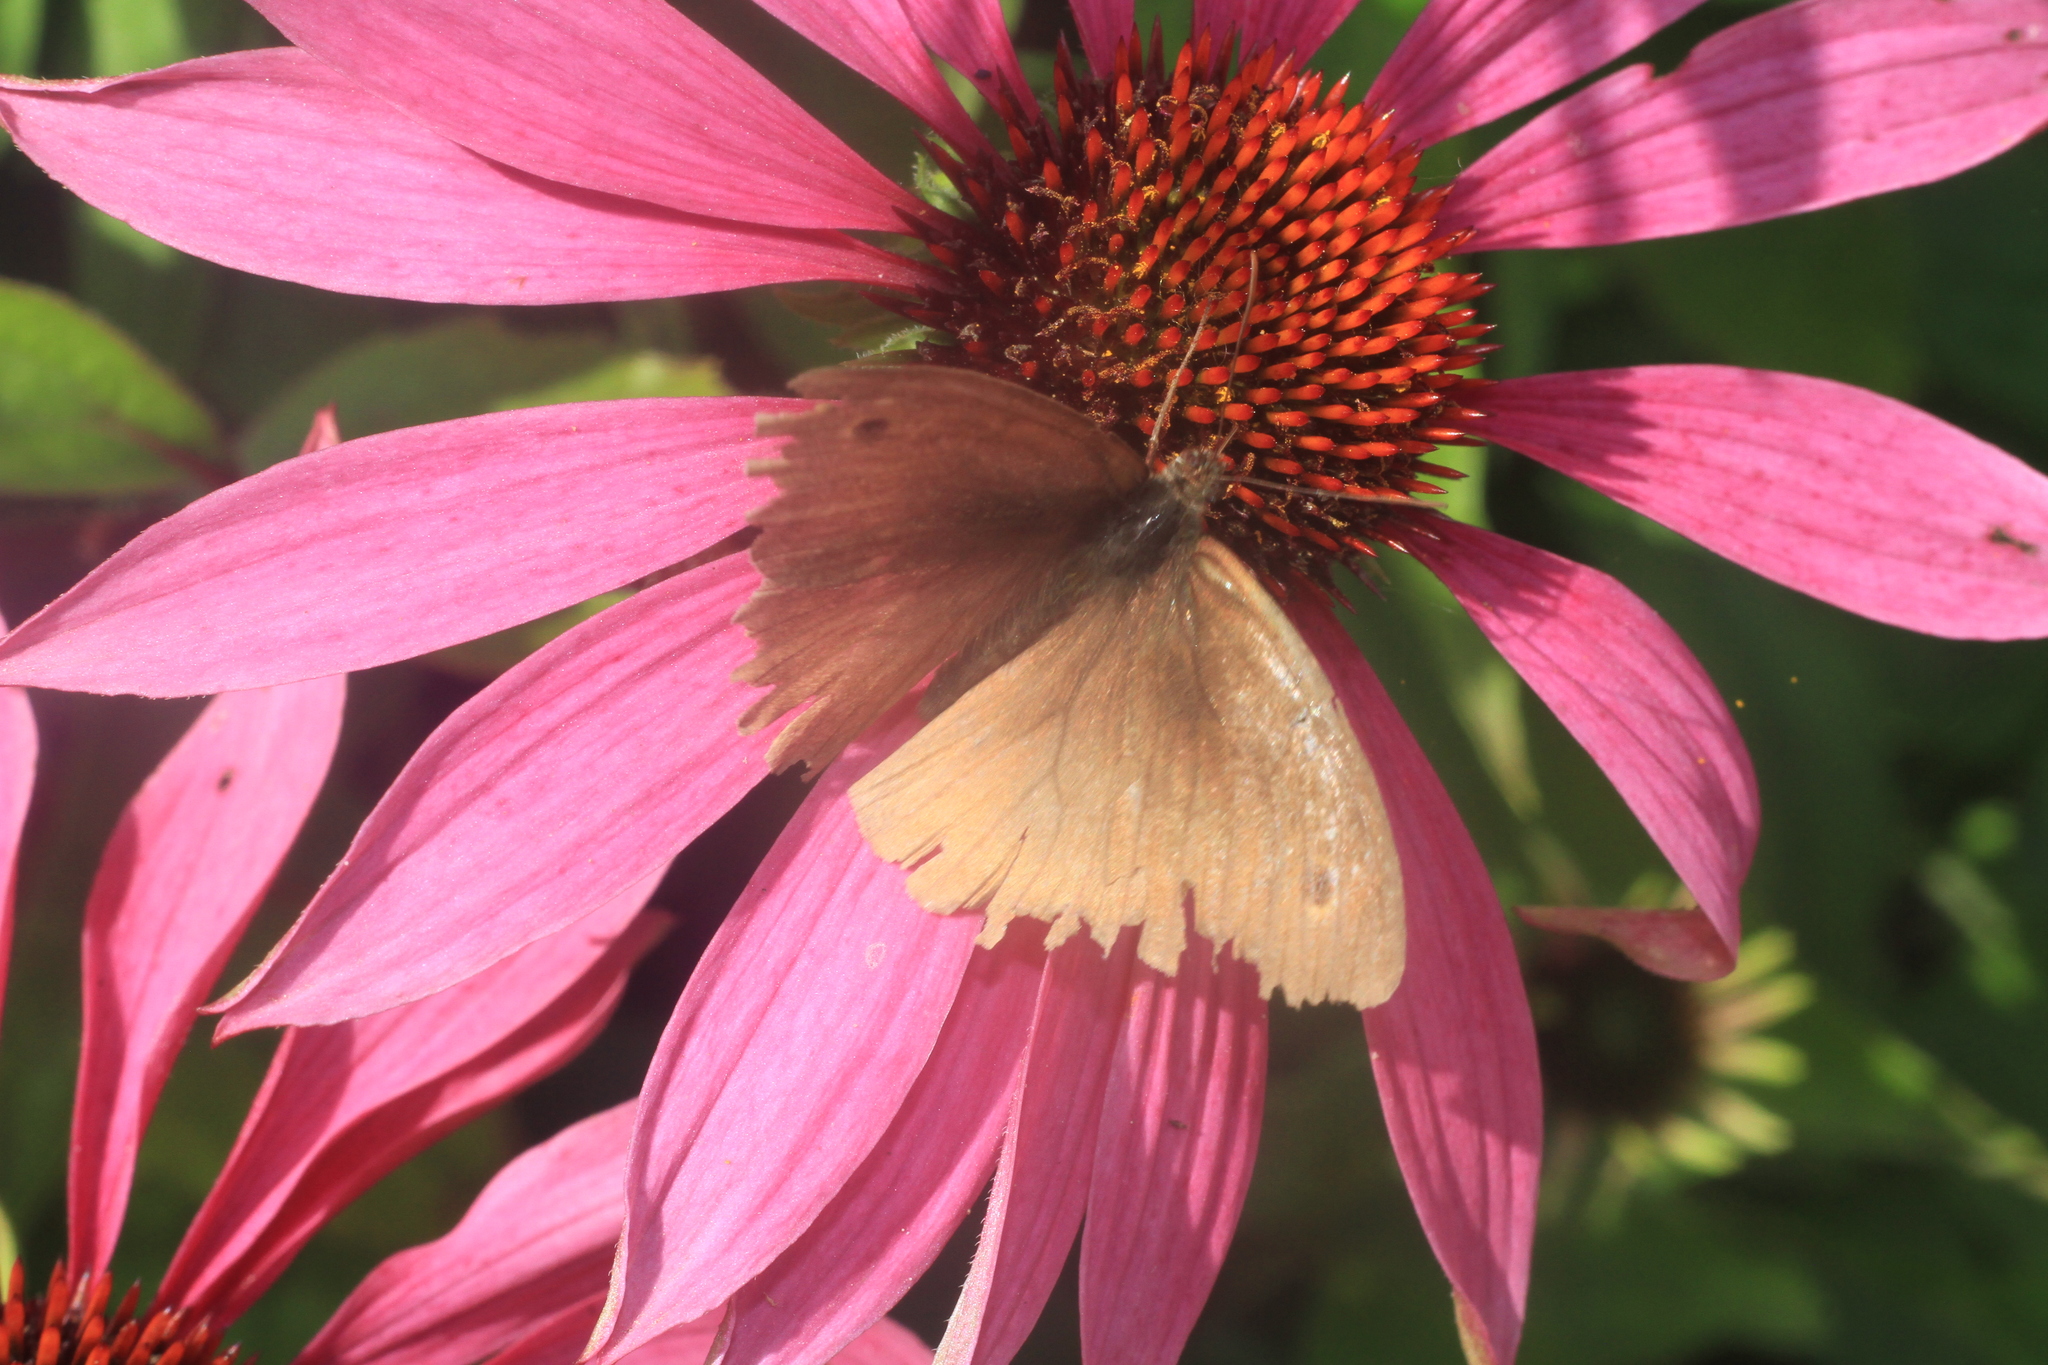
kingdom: Animalia
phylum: Arthropoda
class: Insecta
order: Lepidoptera
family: Nymphalidae
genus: Maniola
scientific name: Maniola jurtina
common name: Meadow brown
